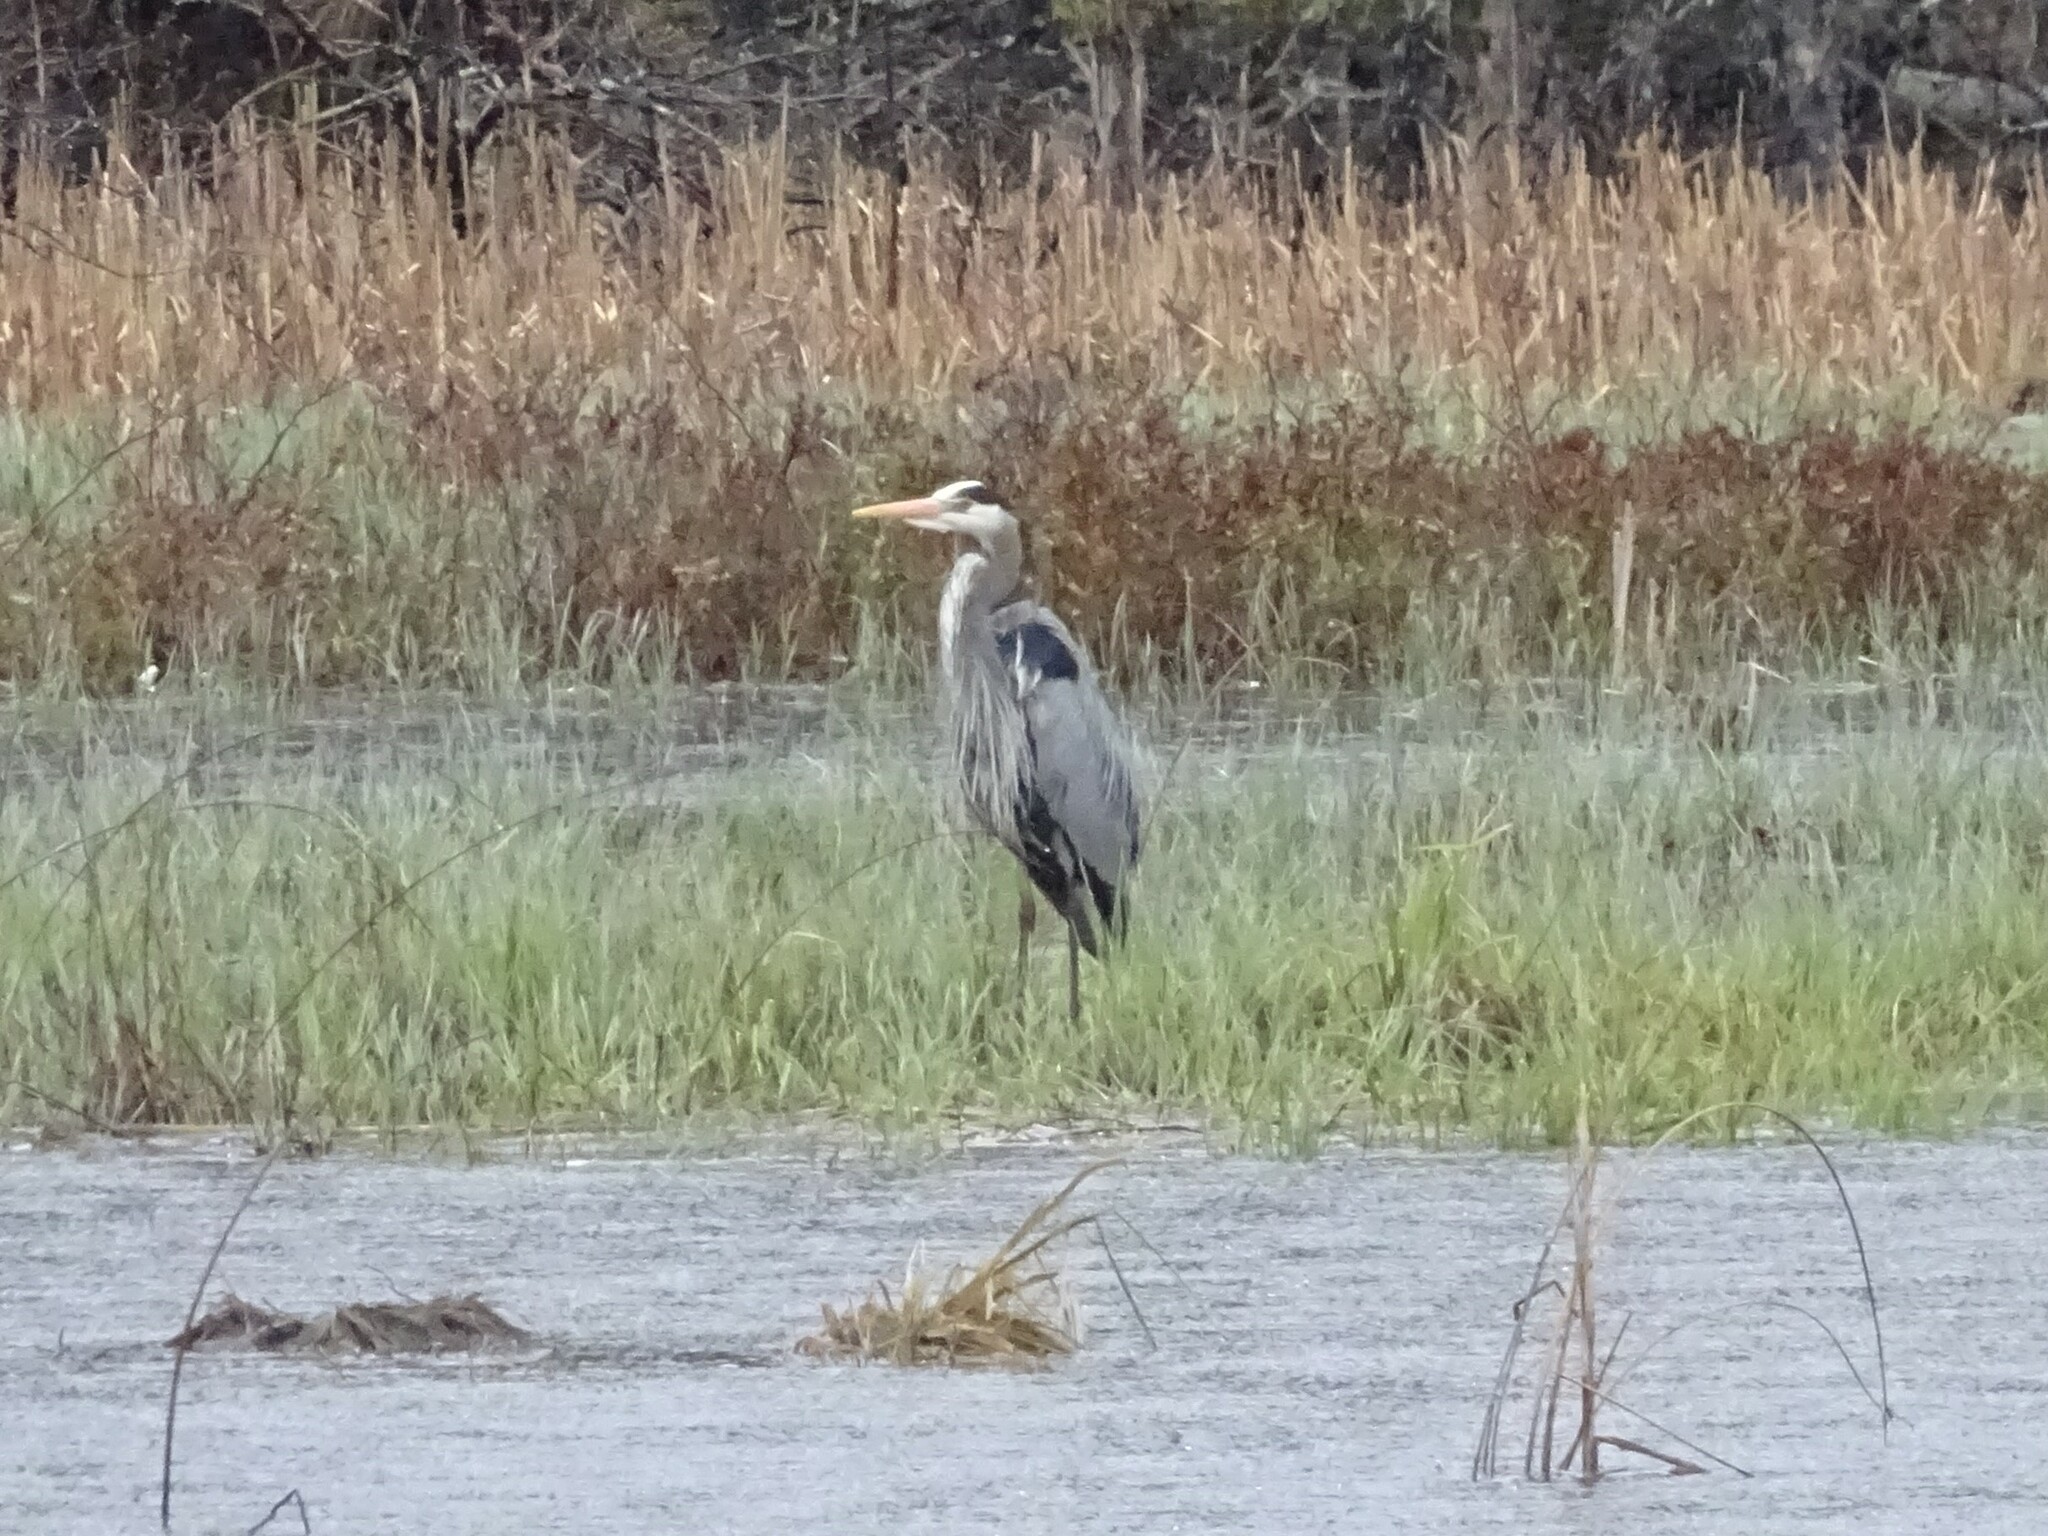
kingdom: Animalia
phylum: Chordata
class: Aves
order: Pelecaniformes
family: Ardeidae
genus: Ardea
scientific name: Ardea herodias
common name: Great blue heron
